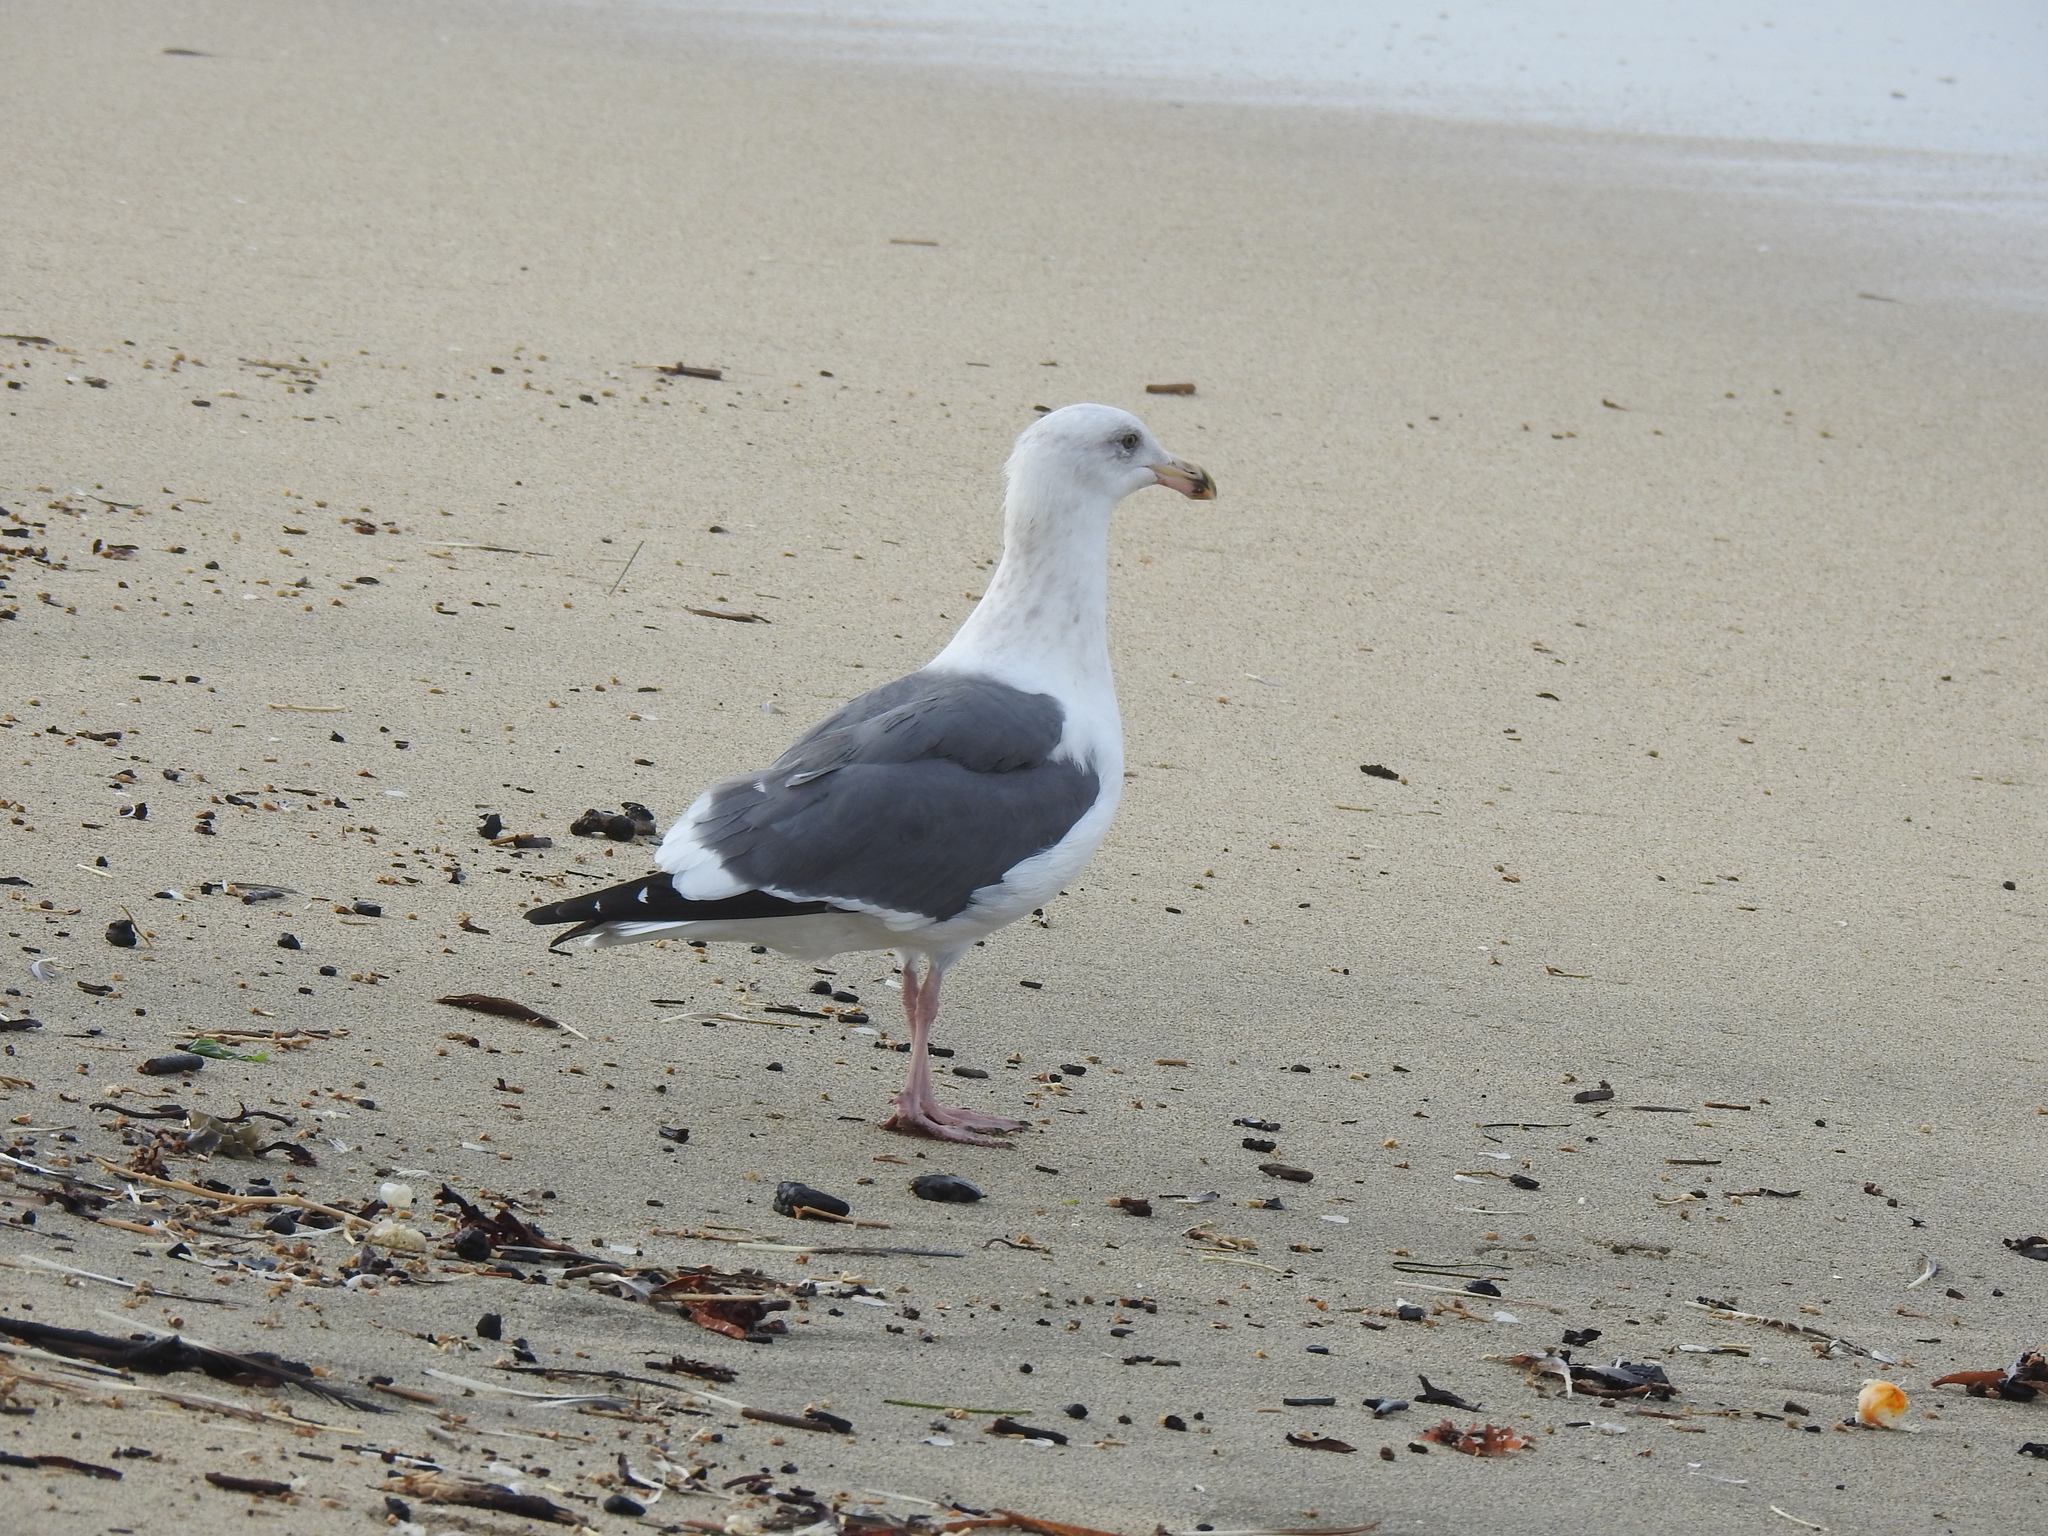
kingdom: Animalia
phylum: Chordata
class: Aves
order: Charadriiformes
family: Laridae
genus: Larus
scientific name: Larus occidentalis
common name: Western gull
